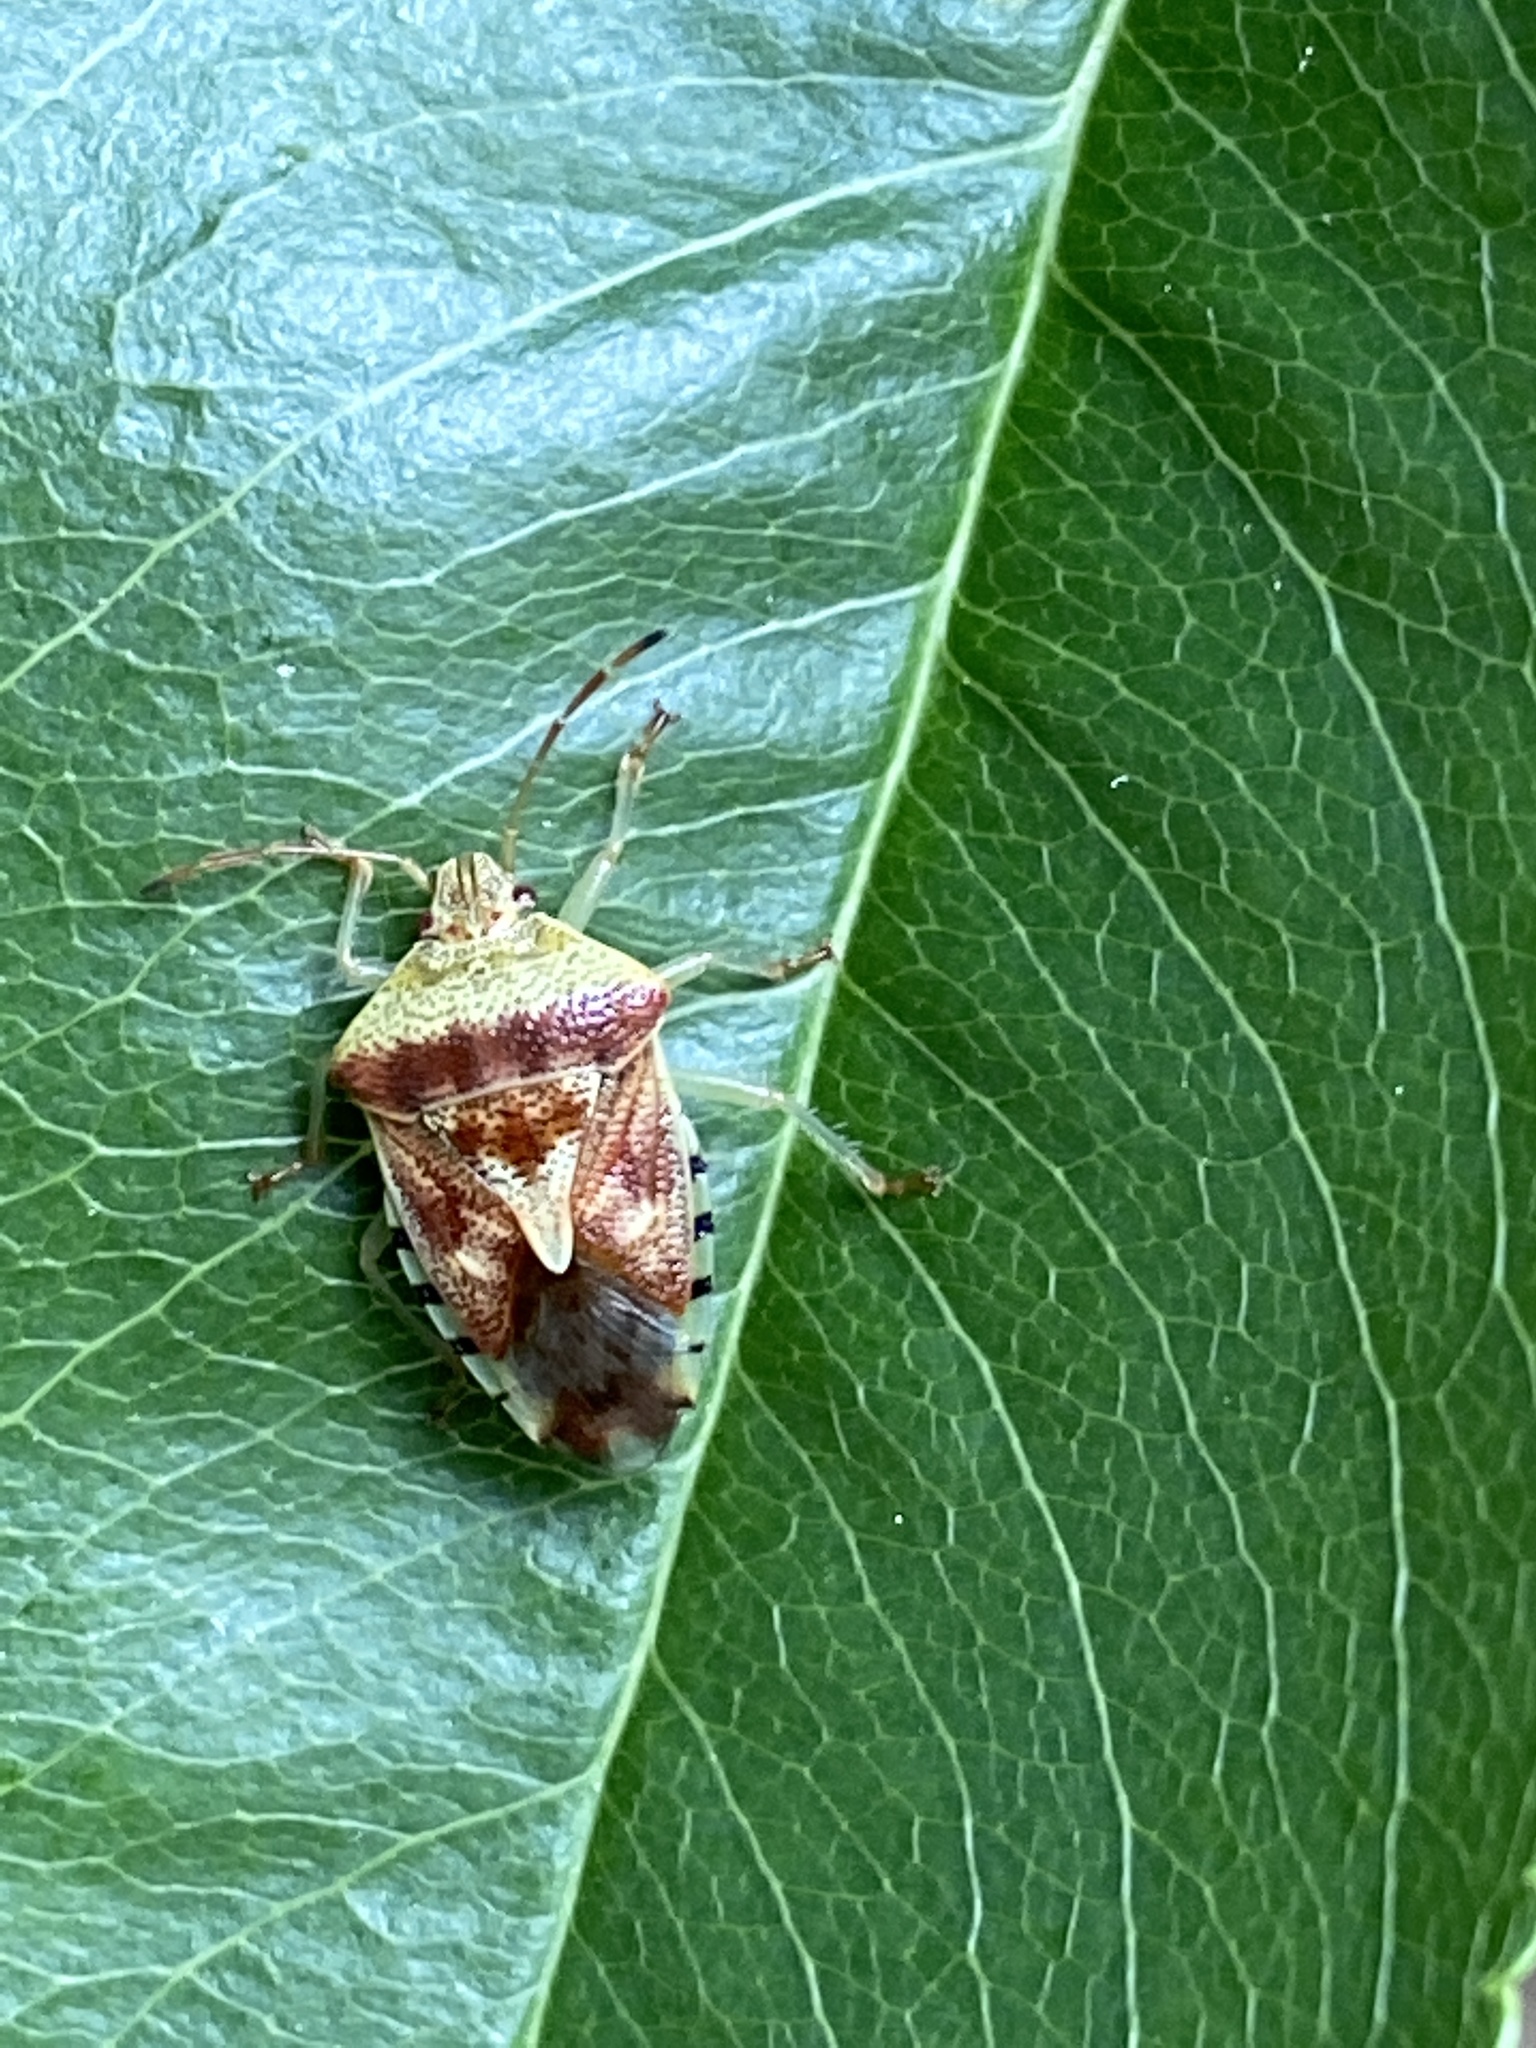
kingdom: Animalia
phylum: Arthropoda
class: Insecta
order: Hemiptera
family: Acanthosomatidae
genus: Elasmucha
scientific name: Elasmucha grisea
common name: Parent bug
